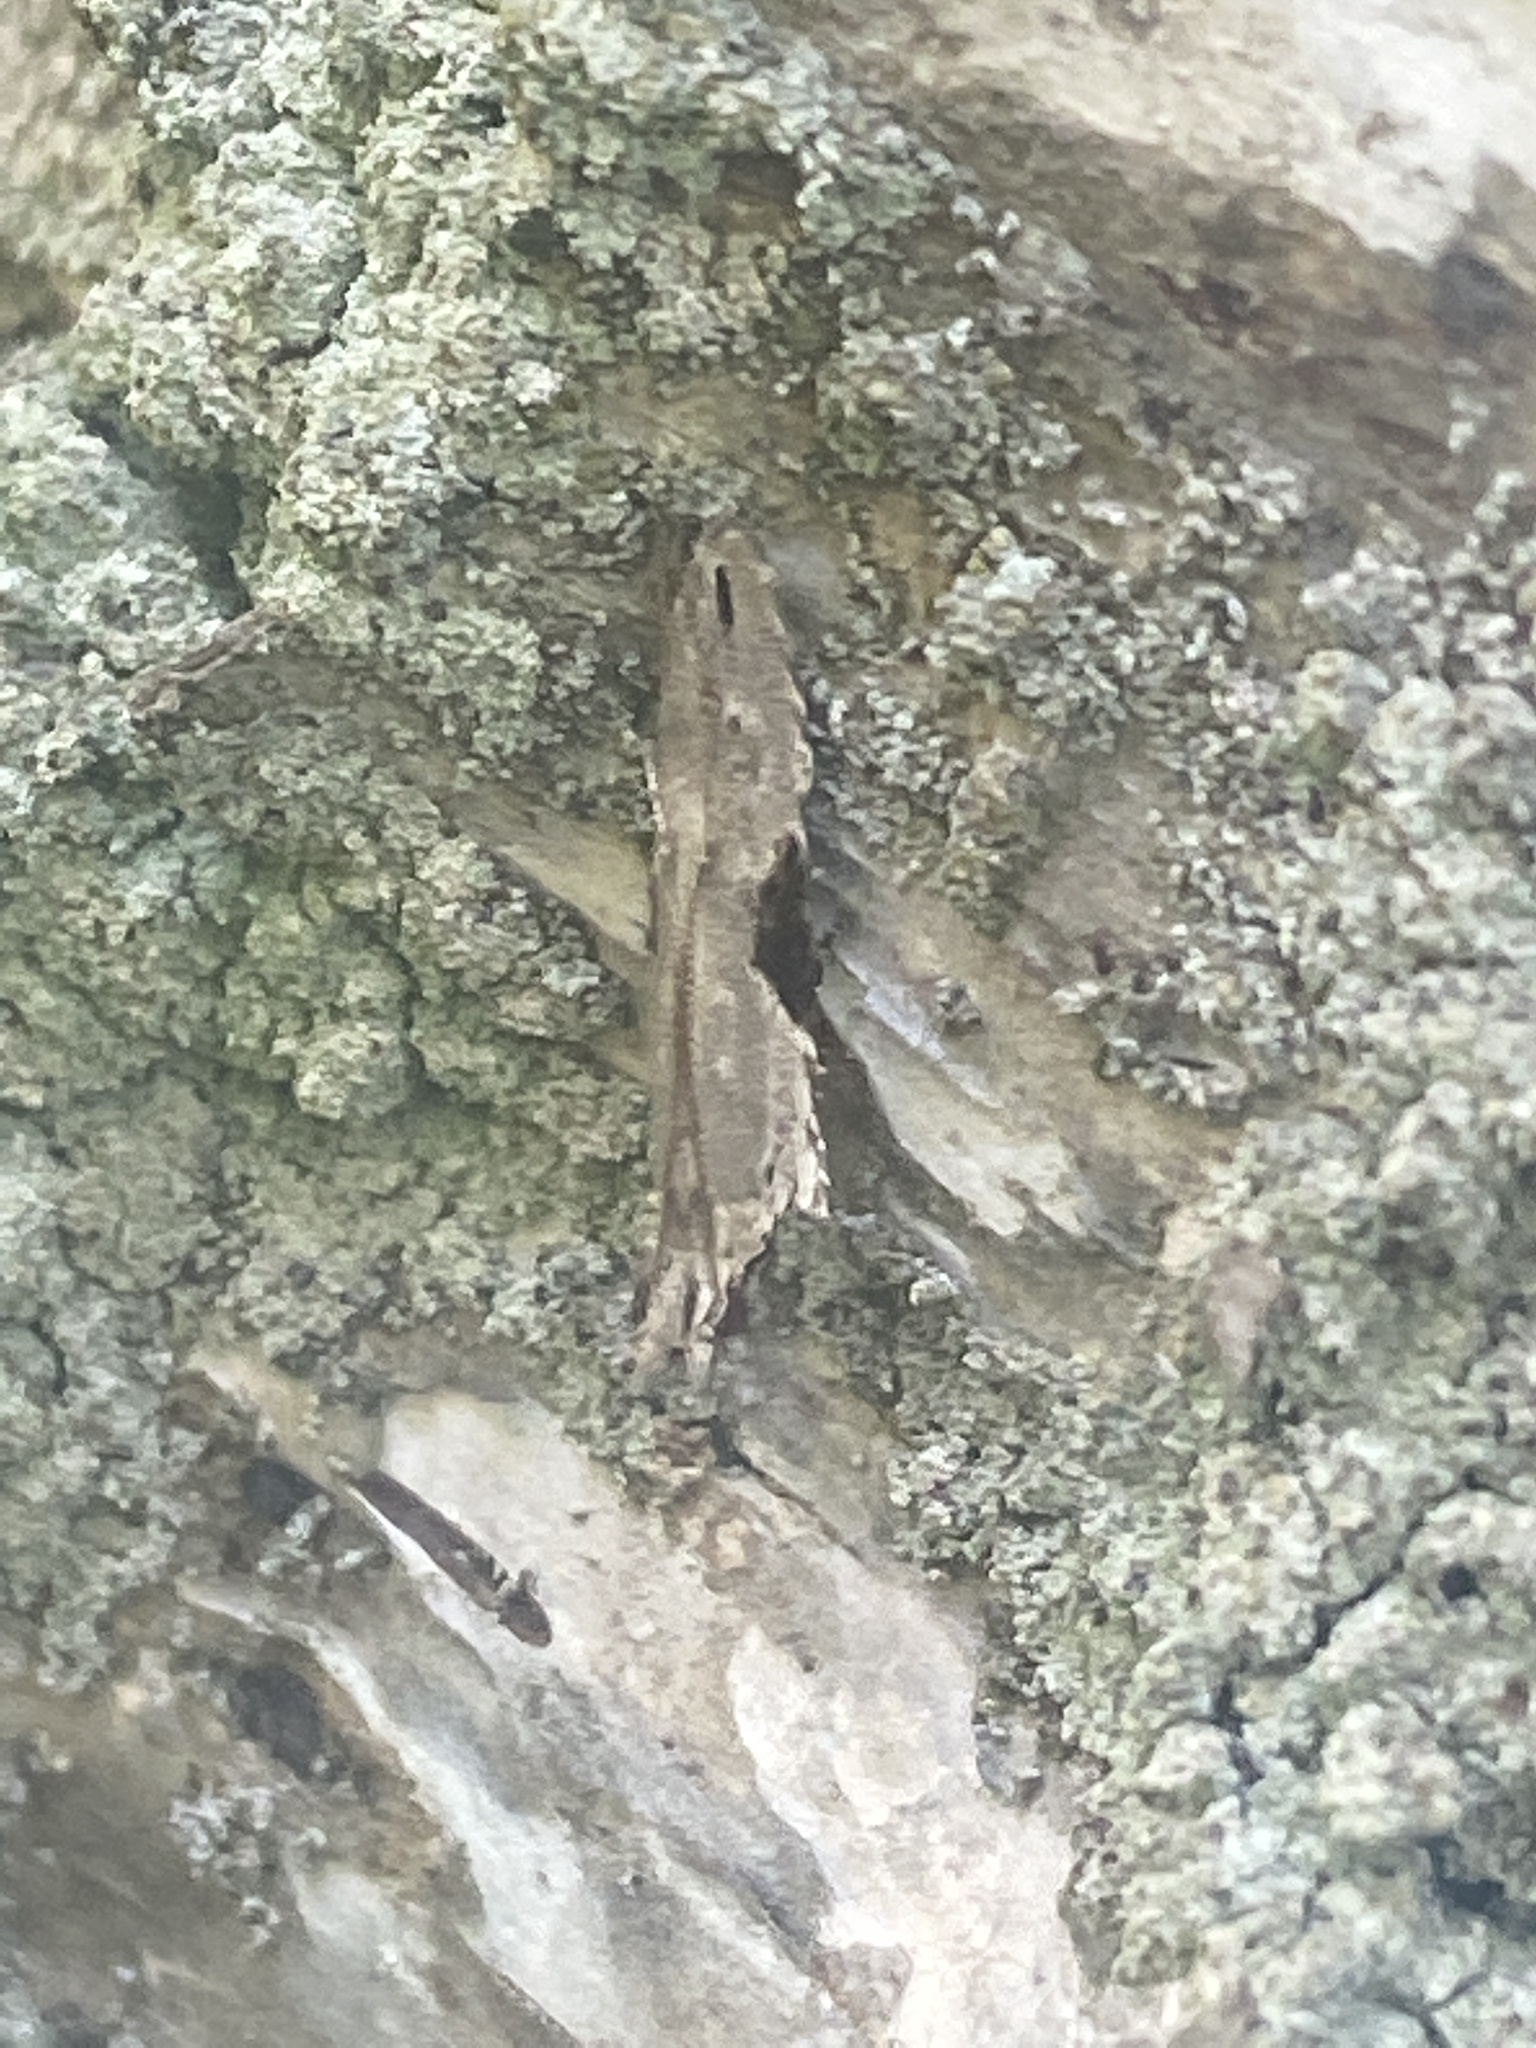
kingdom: Animalia
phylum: Arthropoda
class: Insecta
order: Lepidoptera
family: Gelechiidae
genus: Hypatima
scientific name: Hypatima rhomboidella
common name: Square-spot crest
